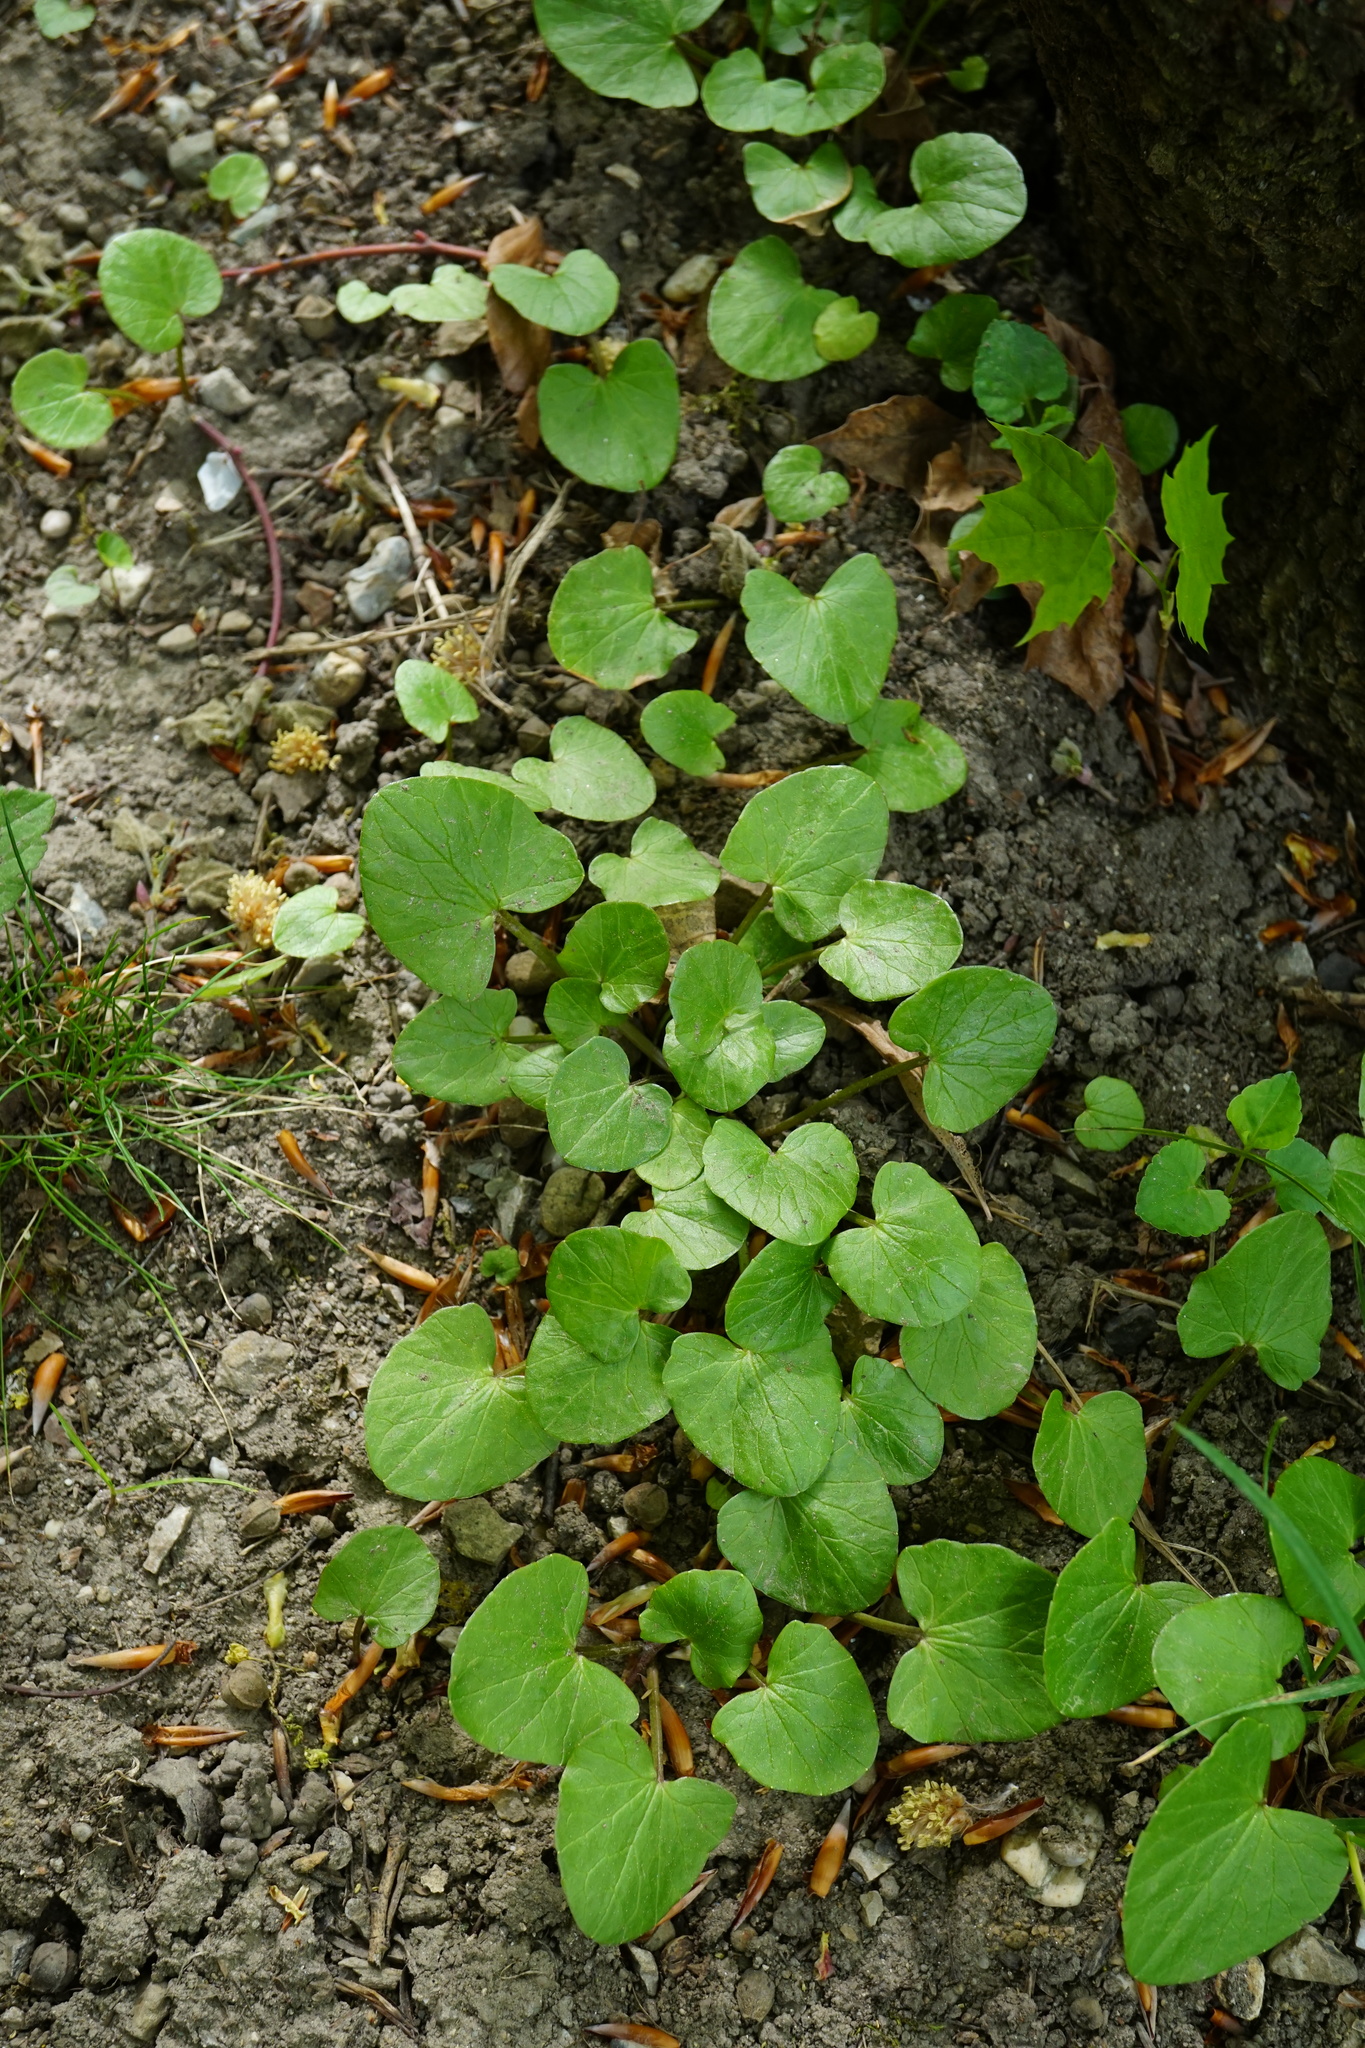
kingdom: Plantae
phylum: Tracheophyta
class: Magnoliopsida
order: Ranunculales
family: Ranunculaceae
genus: Ficaria
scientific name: Ficaria verna
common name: Lesser celandine
